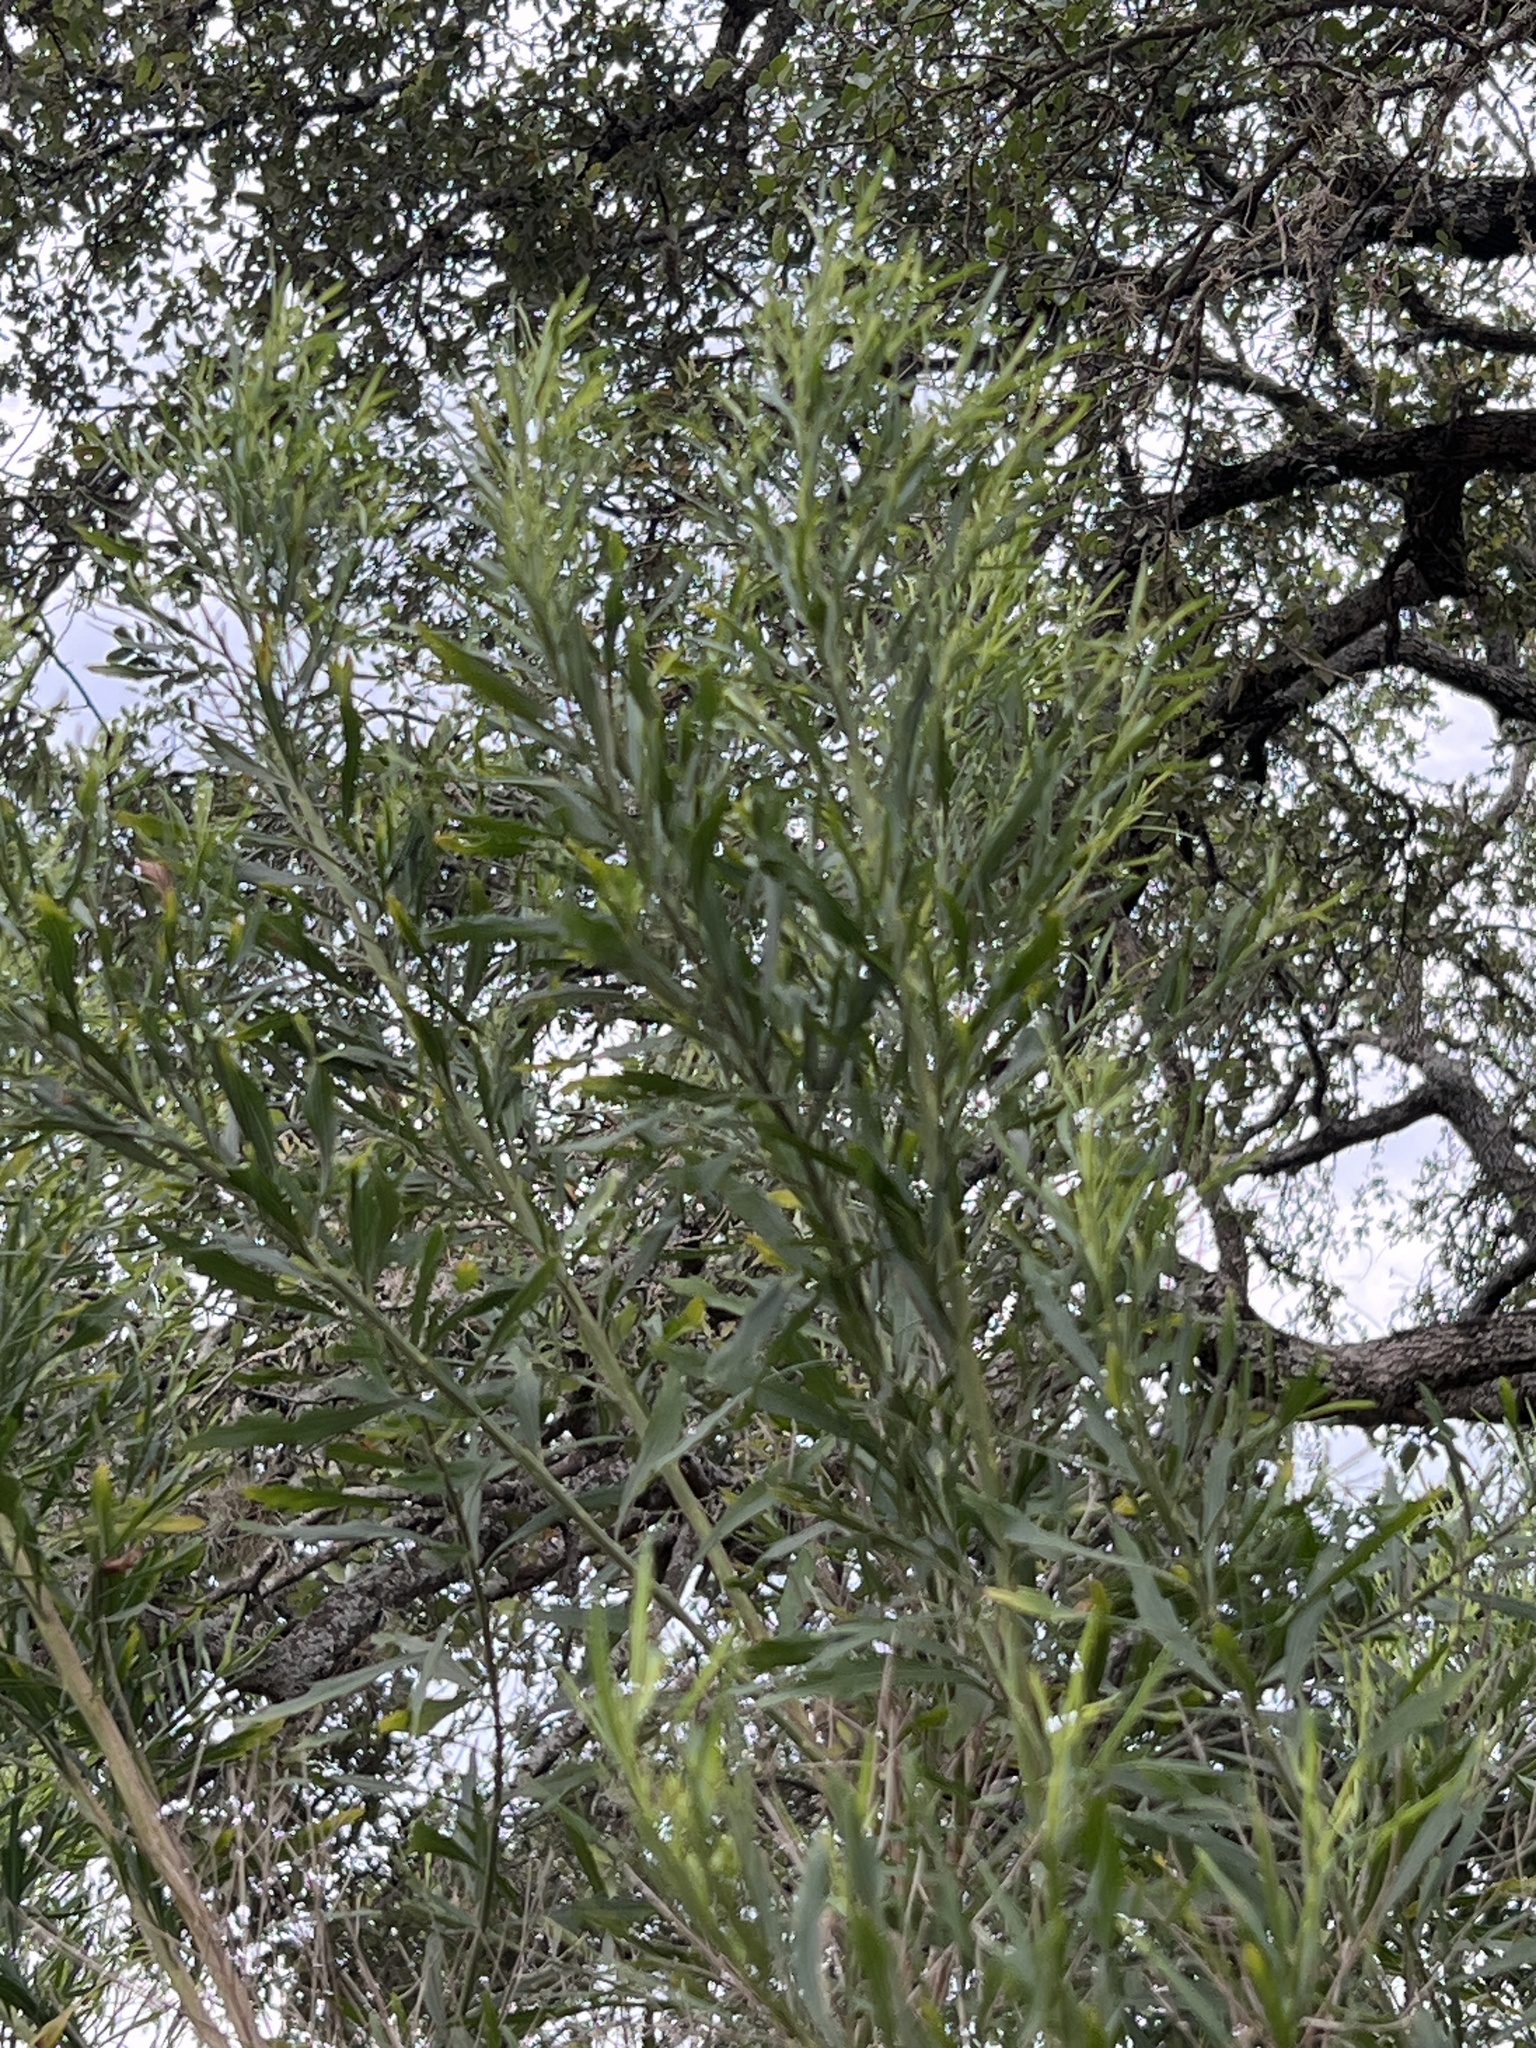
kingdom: Plantae
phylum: Tracheophyta
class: Magnoliopsida
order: Asterales
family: Asteraceae
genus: Baccharis
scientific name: Baccharis neglecta
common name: Roosevelt-weed
